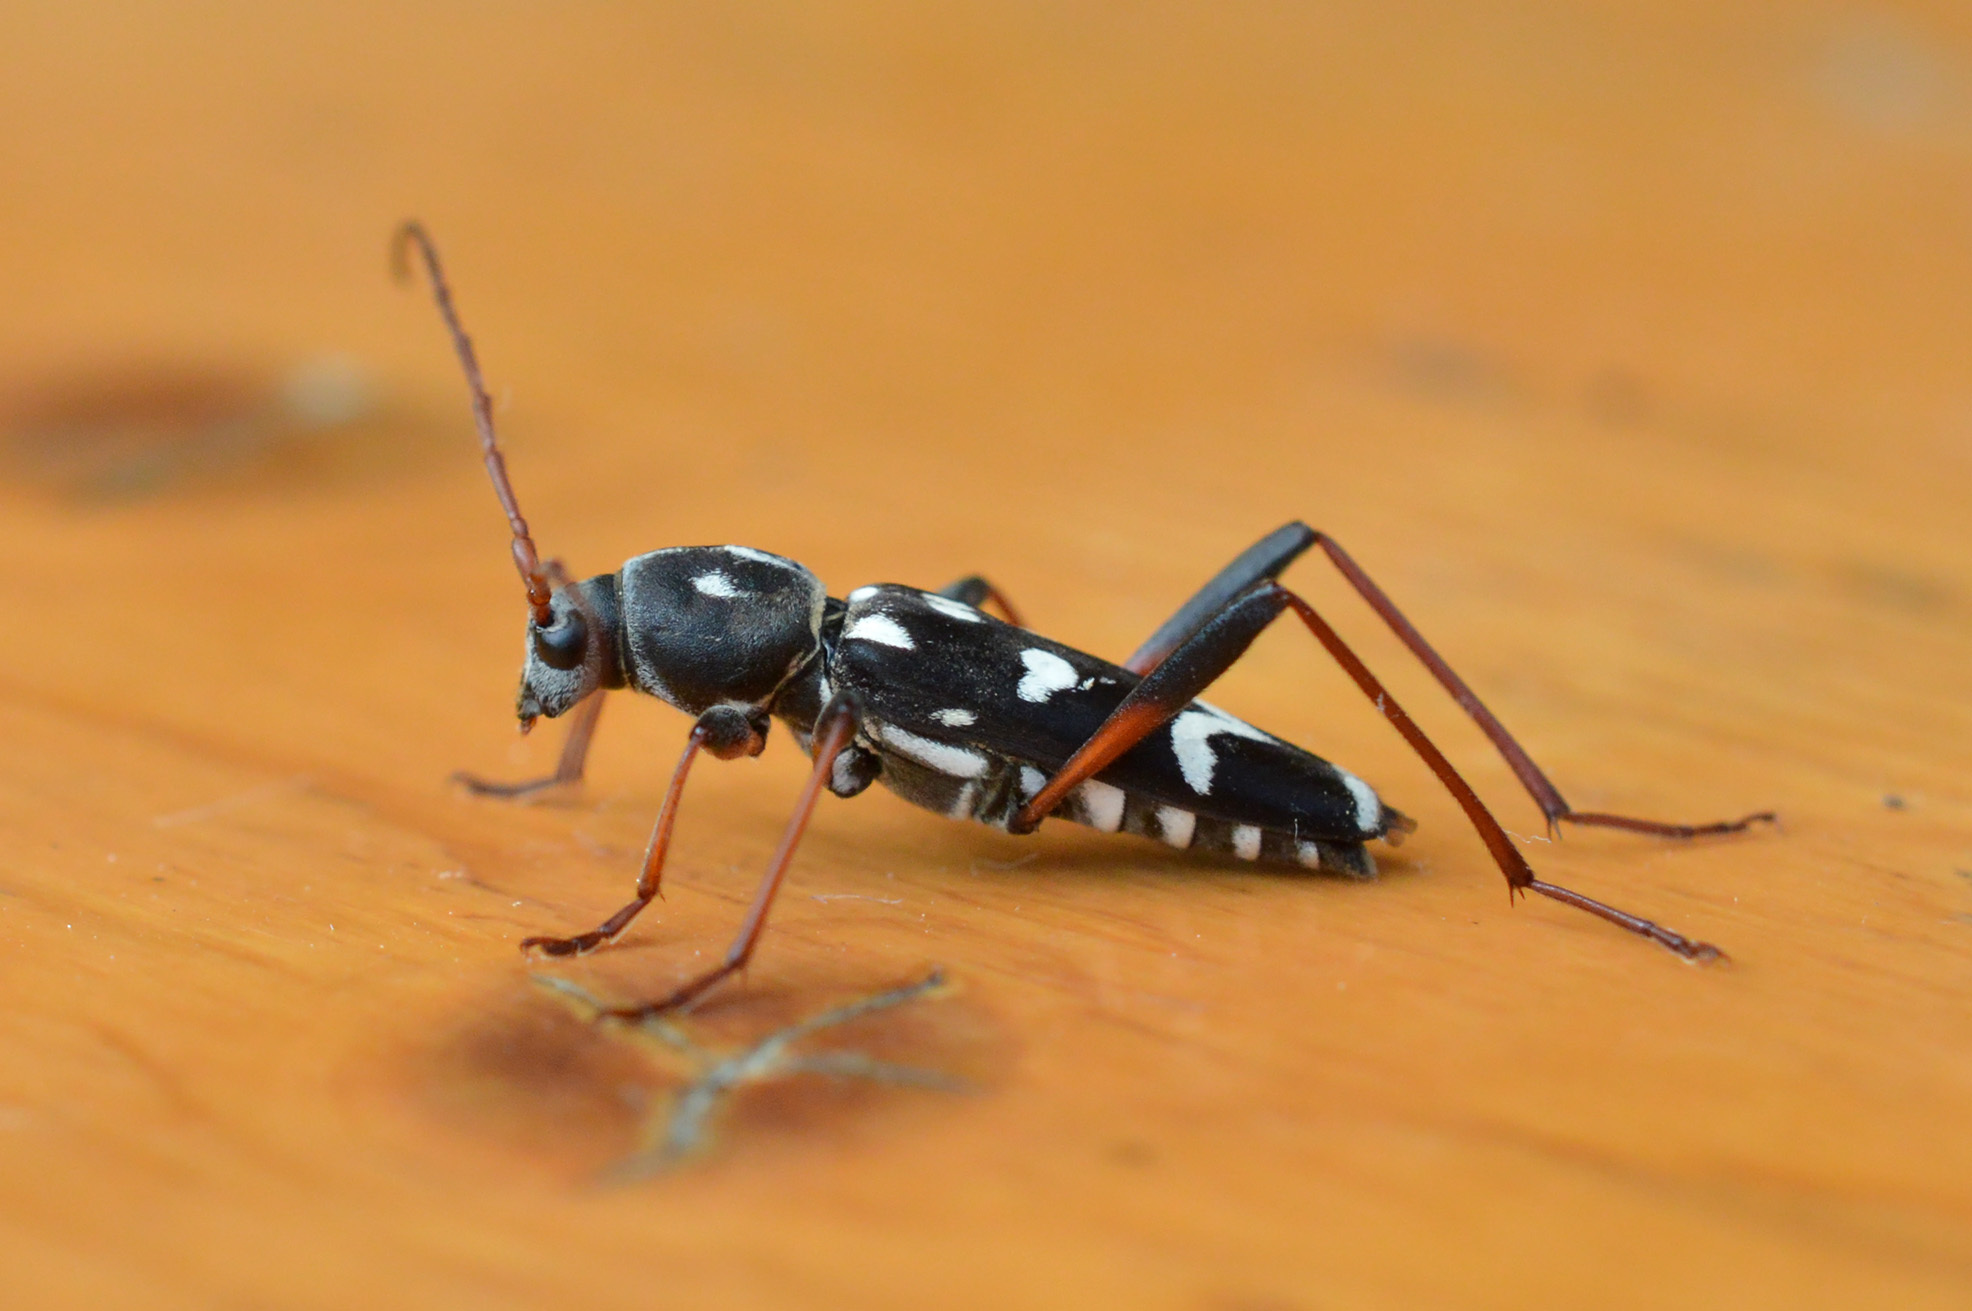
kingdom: Animalia
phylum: Arthropoda
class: Insecta
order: Coleoptera
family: Cerambycidae
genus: Isotomus
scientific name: Isotomus speciosus
